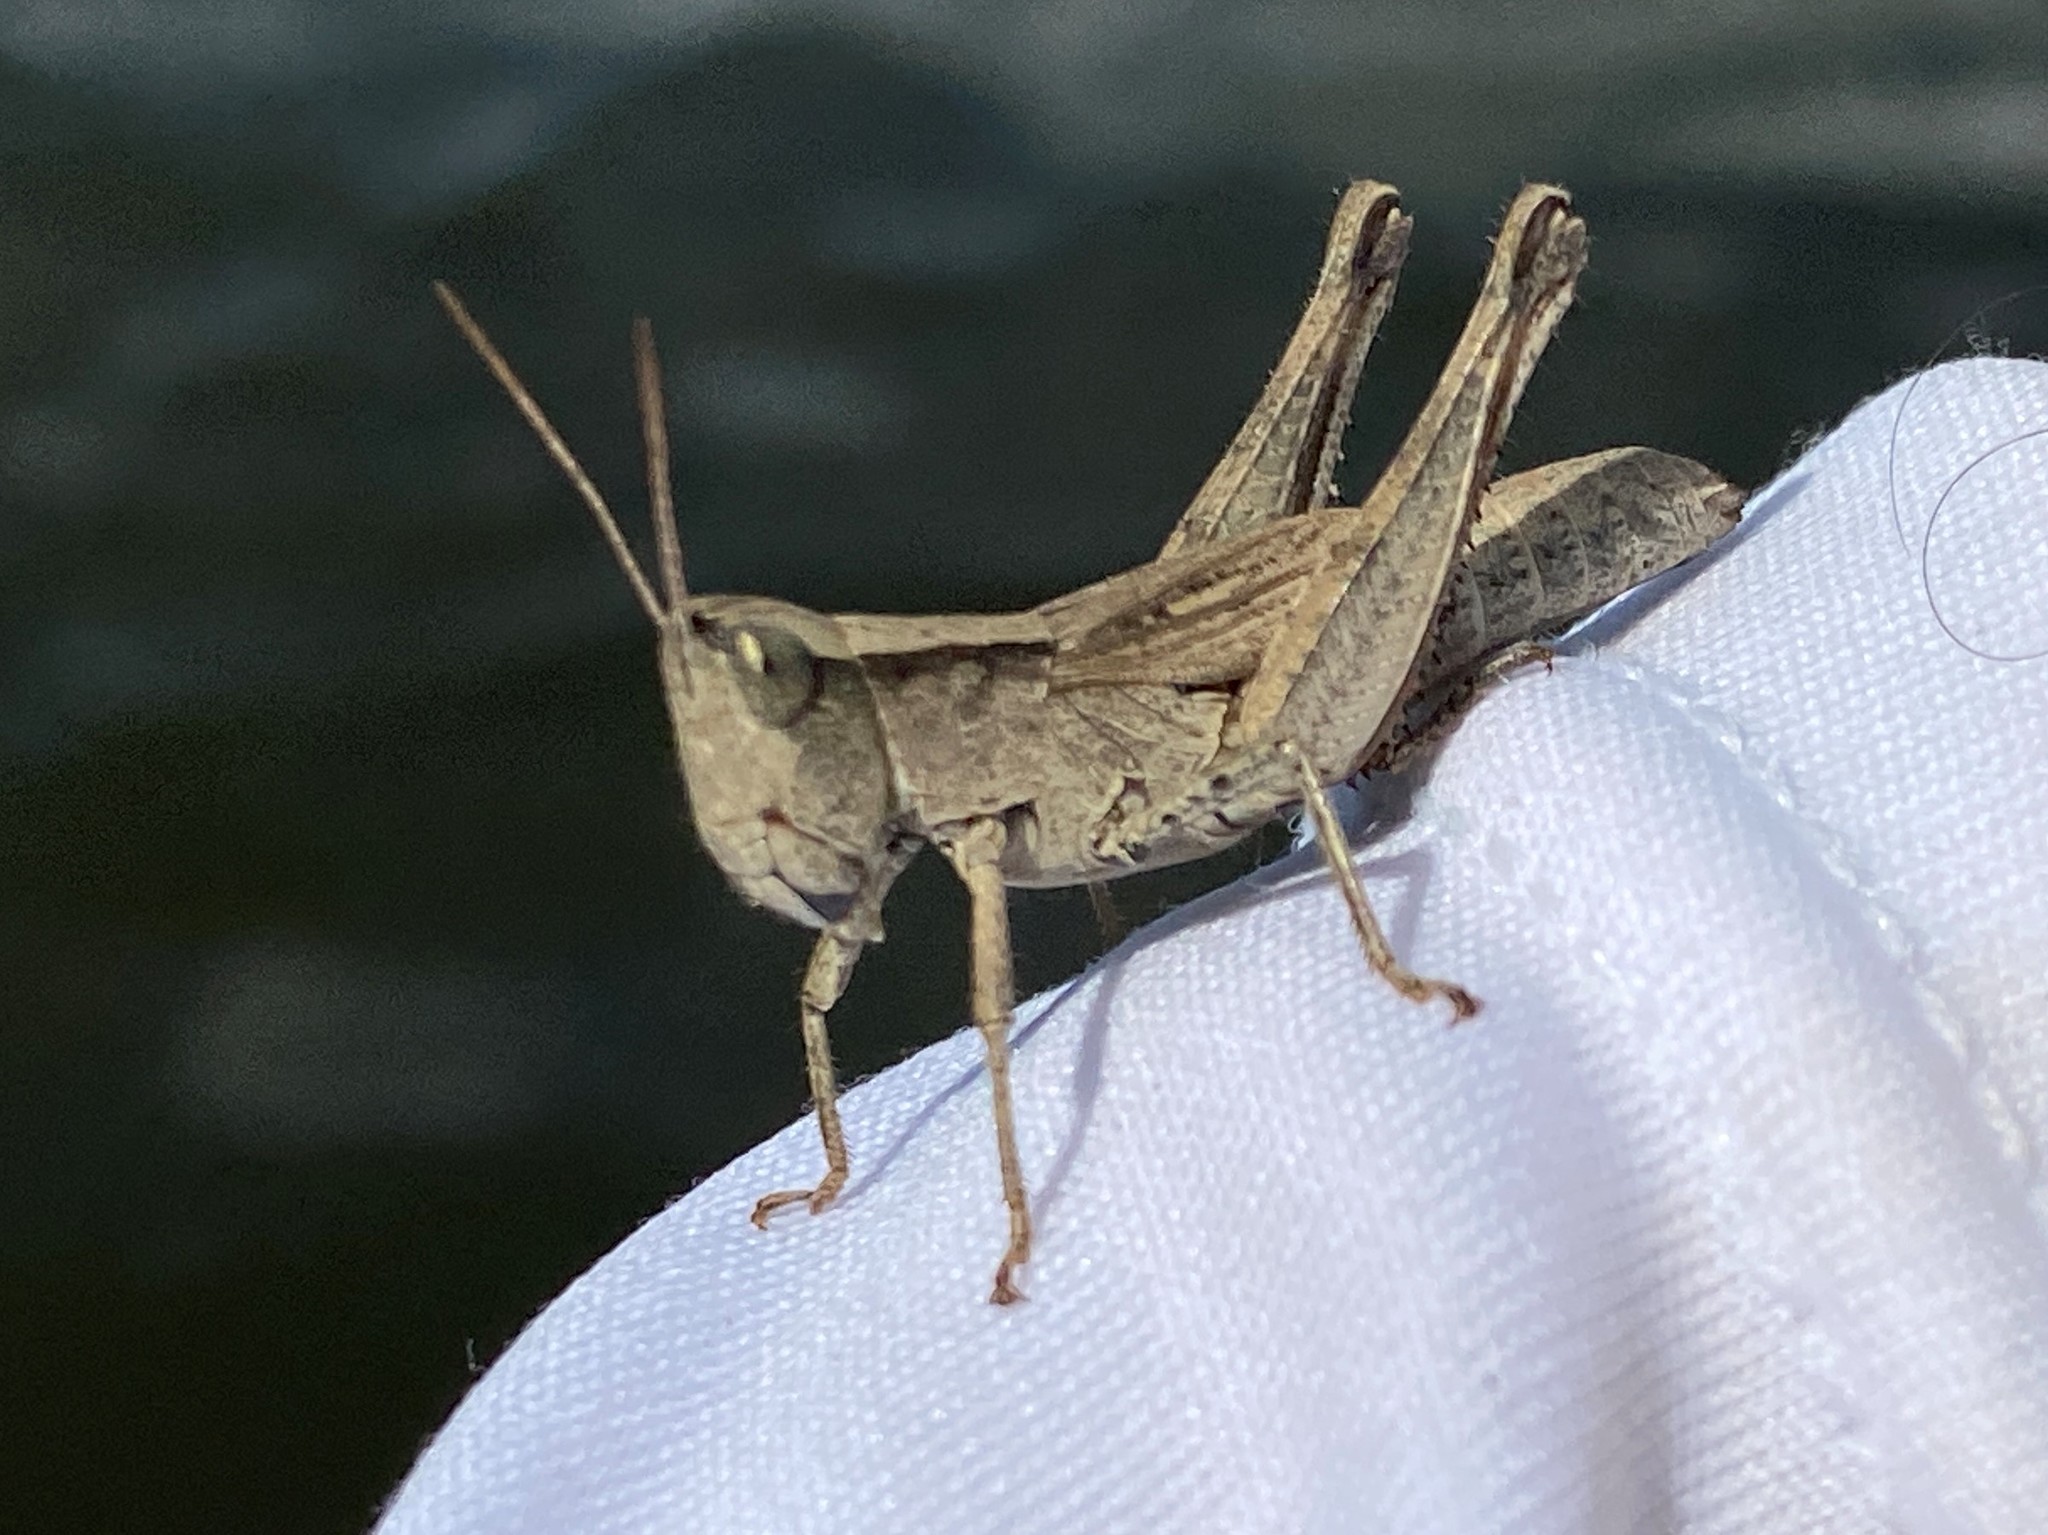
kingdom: Animalia
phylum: Arthropoda
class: Insecta
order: Orthoptera
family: Acrididae
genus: Dichromorpha
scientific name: Dichromorpha viridis
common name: Short-winged green grasshopper
